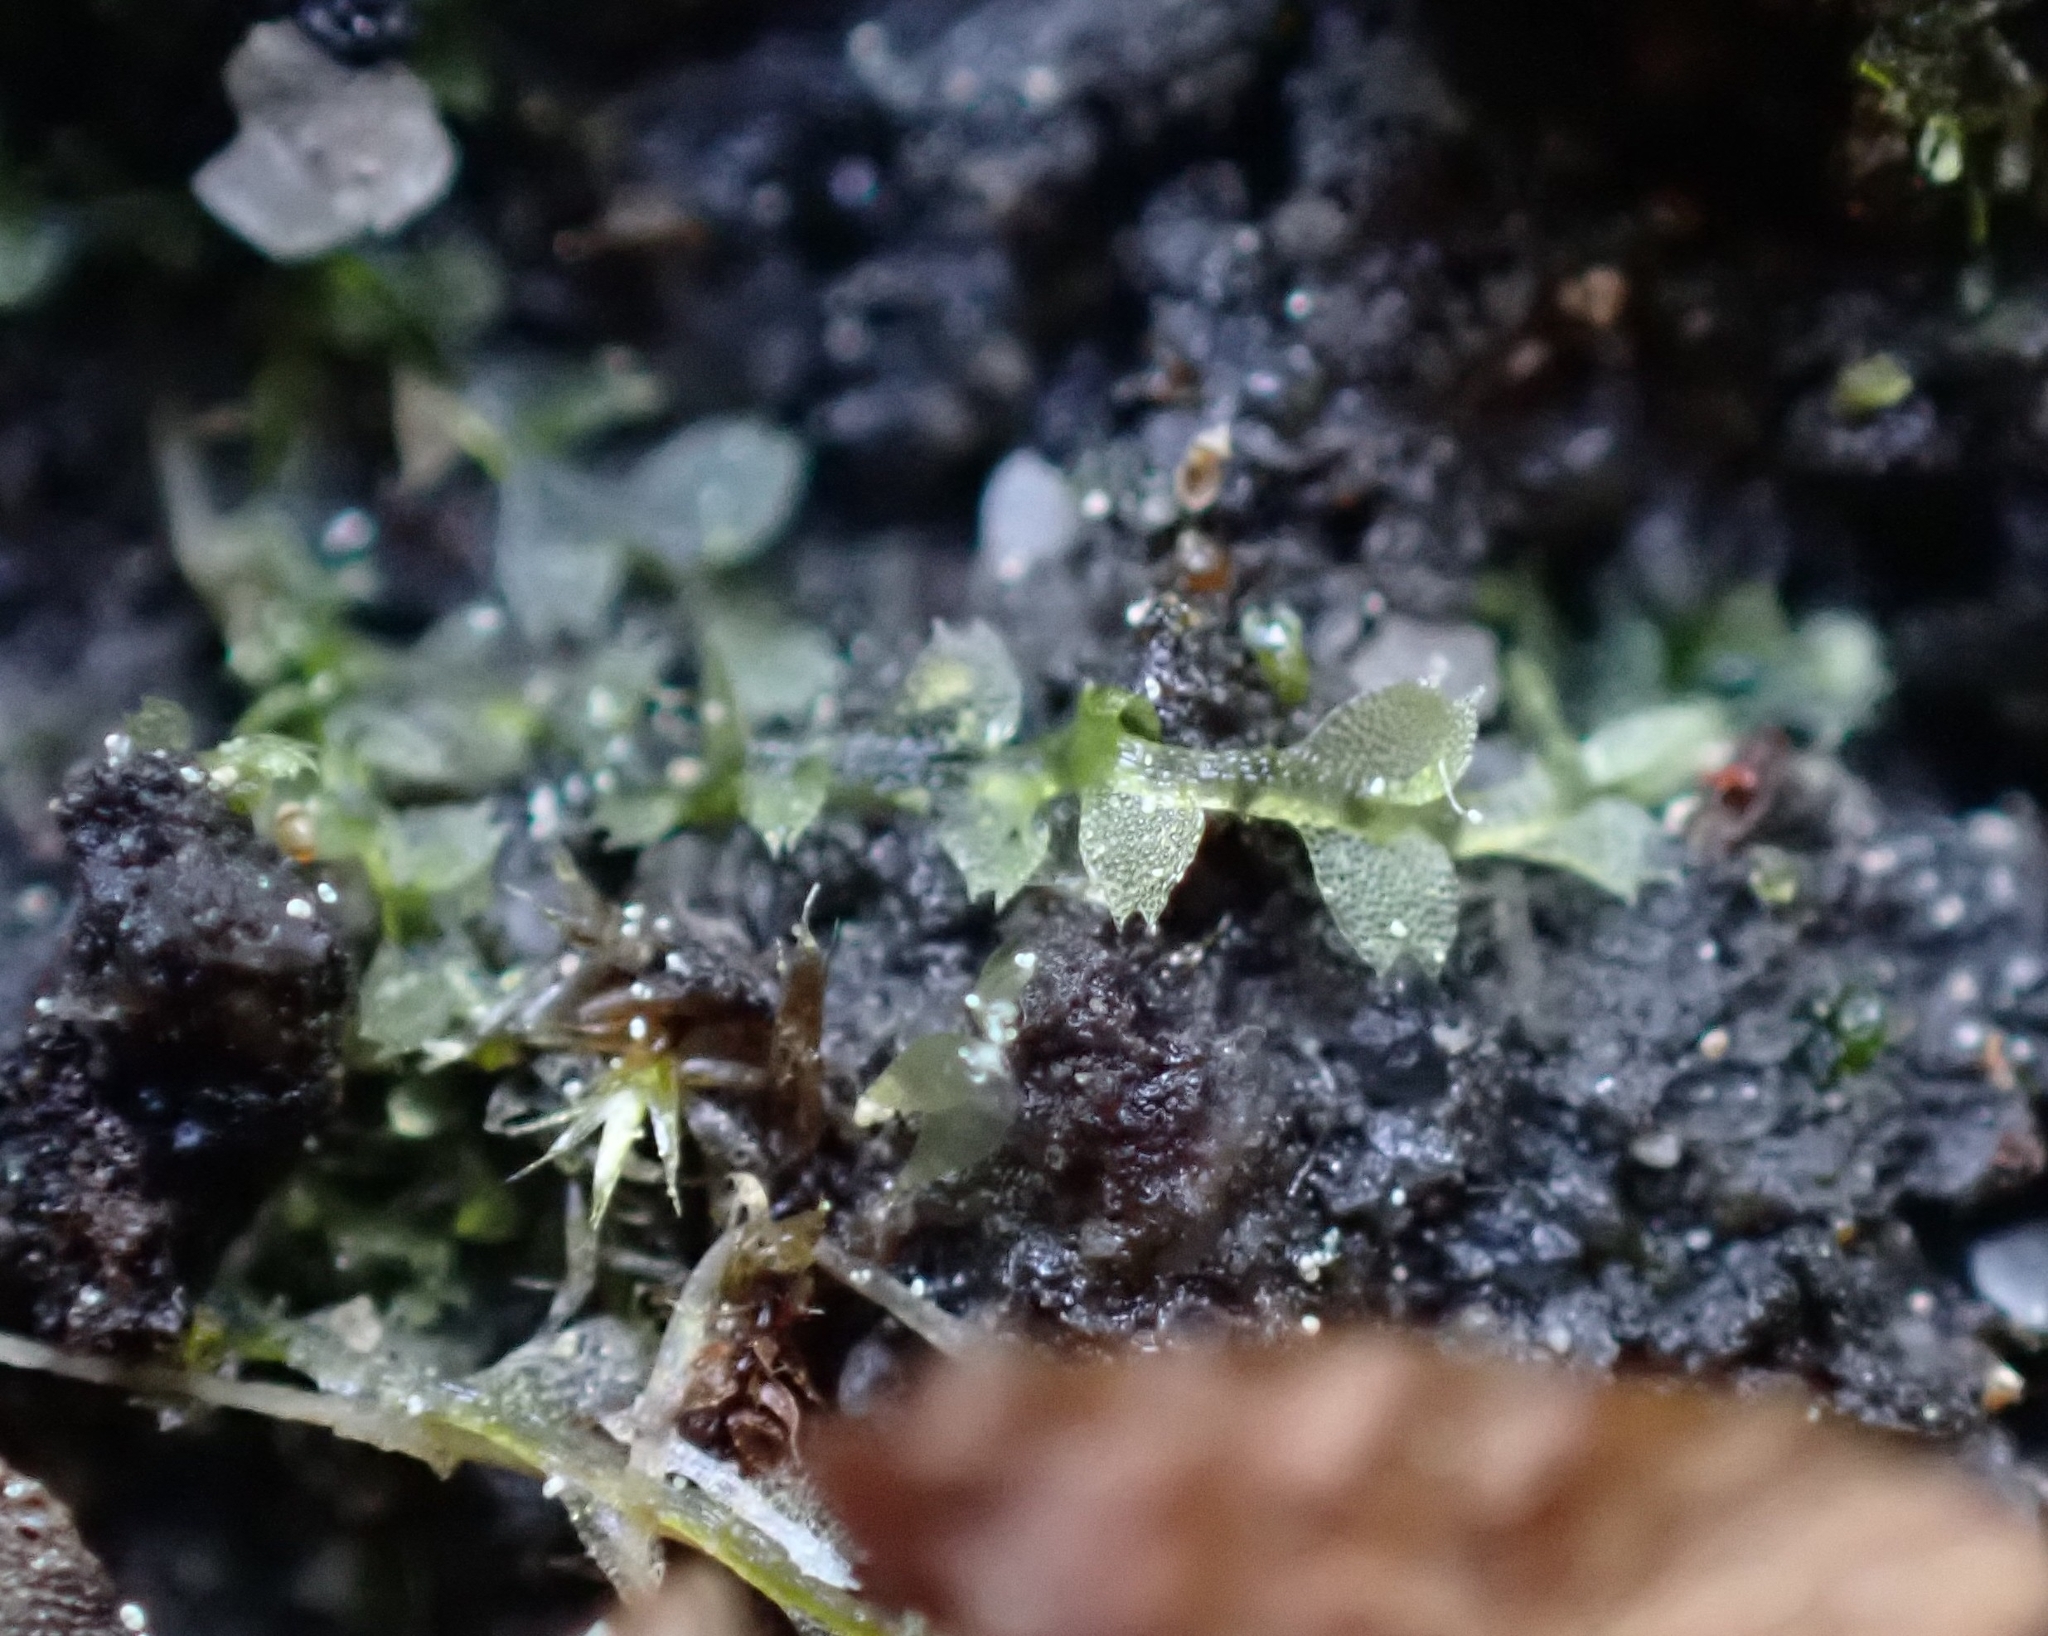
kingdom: Plantae
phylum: Marchantiophyta
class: Jungermanniopsida
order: Jungermanniales
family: Calypogeiaceae
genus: Asperifolia
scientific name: Asperifolia arguta
